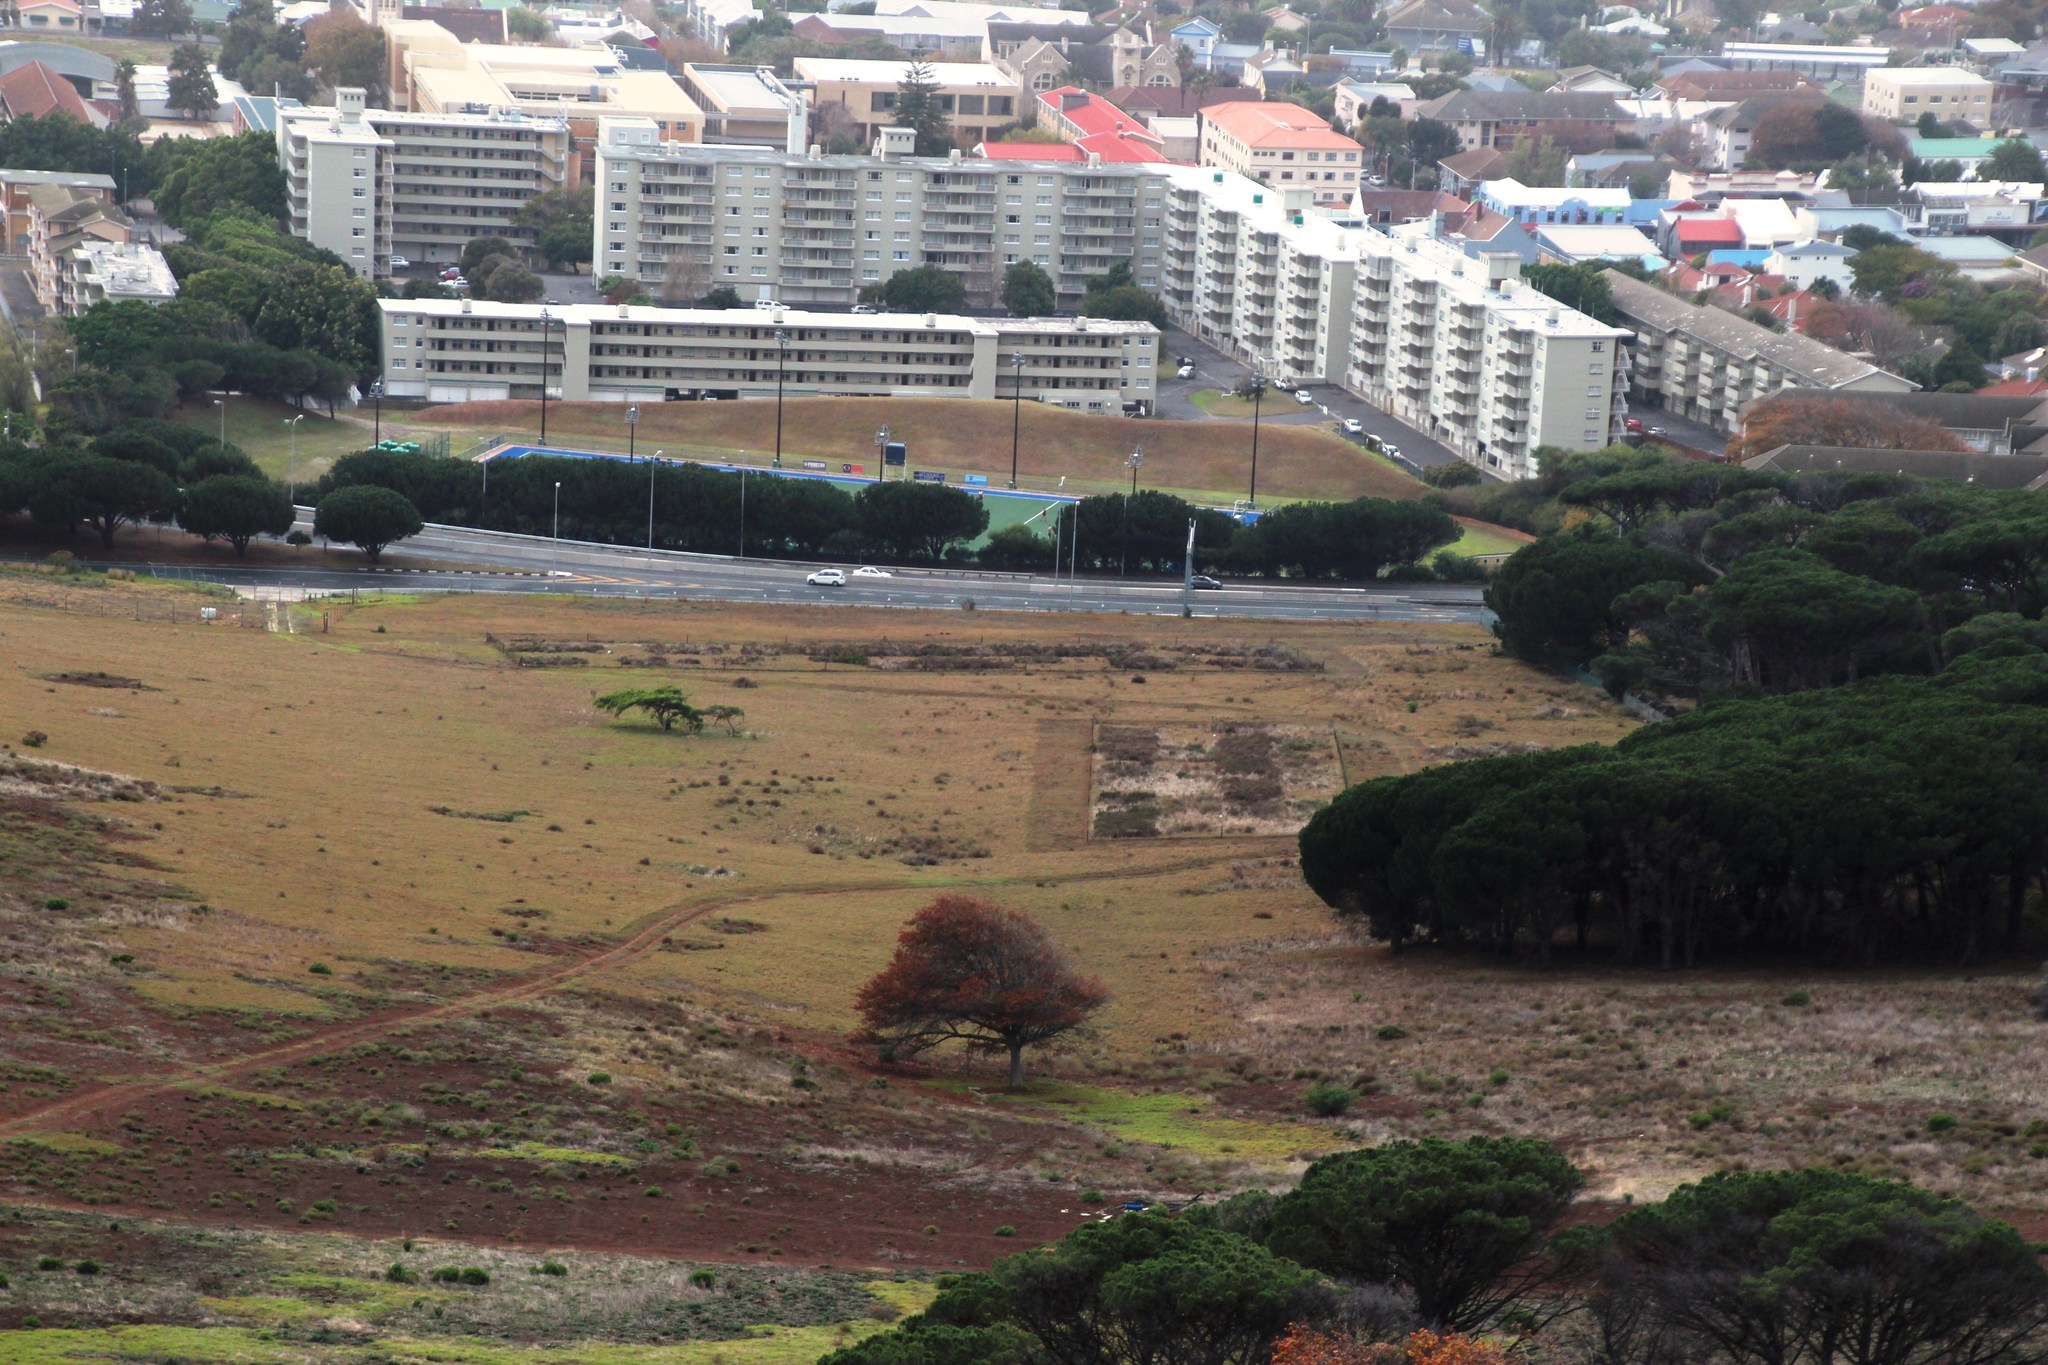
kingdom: Plantae
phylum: Tracheophyta
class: Magnoliopsida
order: Fabales
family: Fabaceae
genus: Vachellia
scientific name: Vachellia sieberiana
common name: Flat-topped thorn
